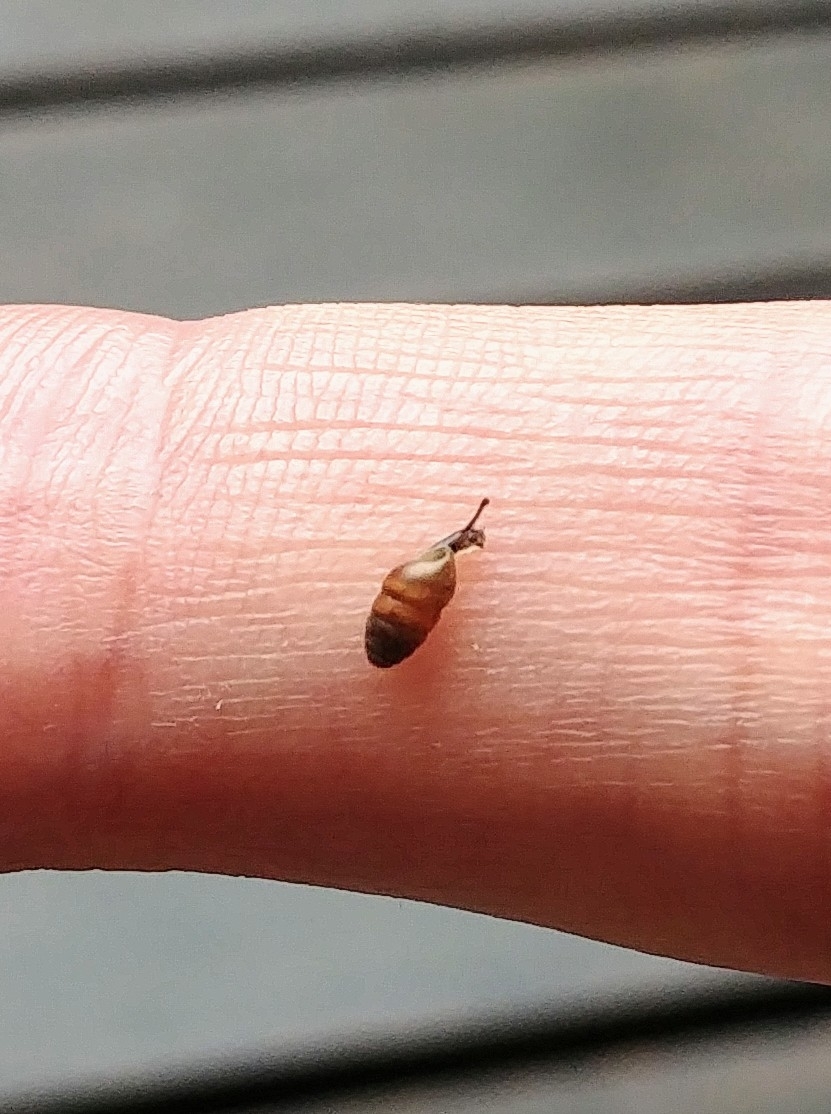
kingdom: Animalia
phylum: Mollusca
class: Gastropoda
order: Stylommatophora
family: Lauriidae
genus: Lauria
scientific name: Lauria cylindracea
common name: Common chrysalis snail
